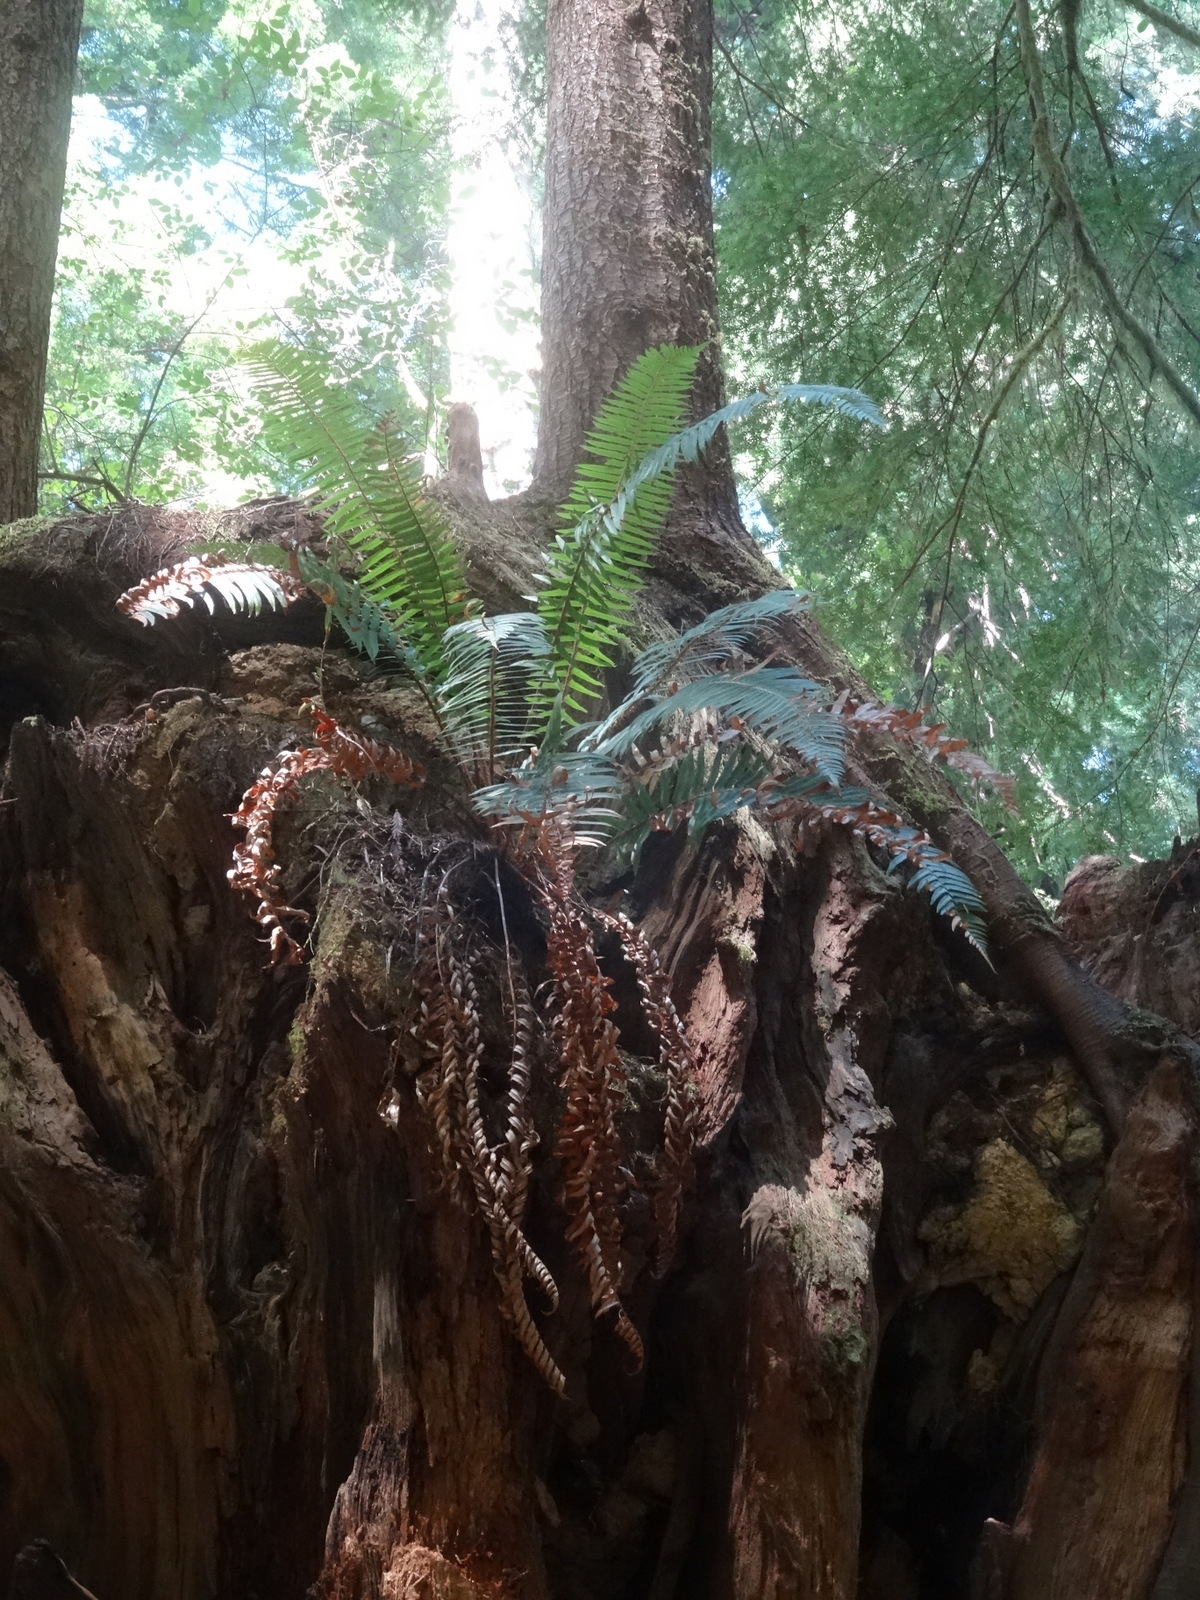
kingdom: Plantae
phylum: Tracheophyta
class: Polypodiopsida
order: Polypodiales
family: Dryopteridaceae
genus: Polystichum
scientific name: Polystichum munitum
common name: Western sword-fern
